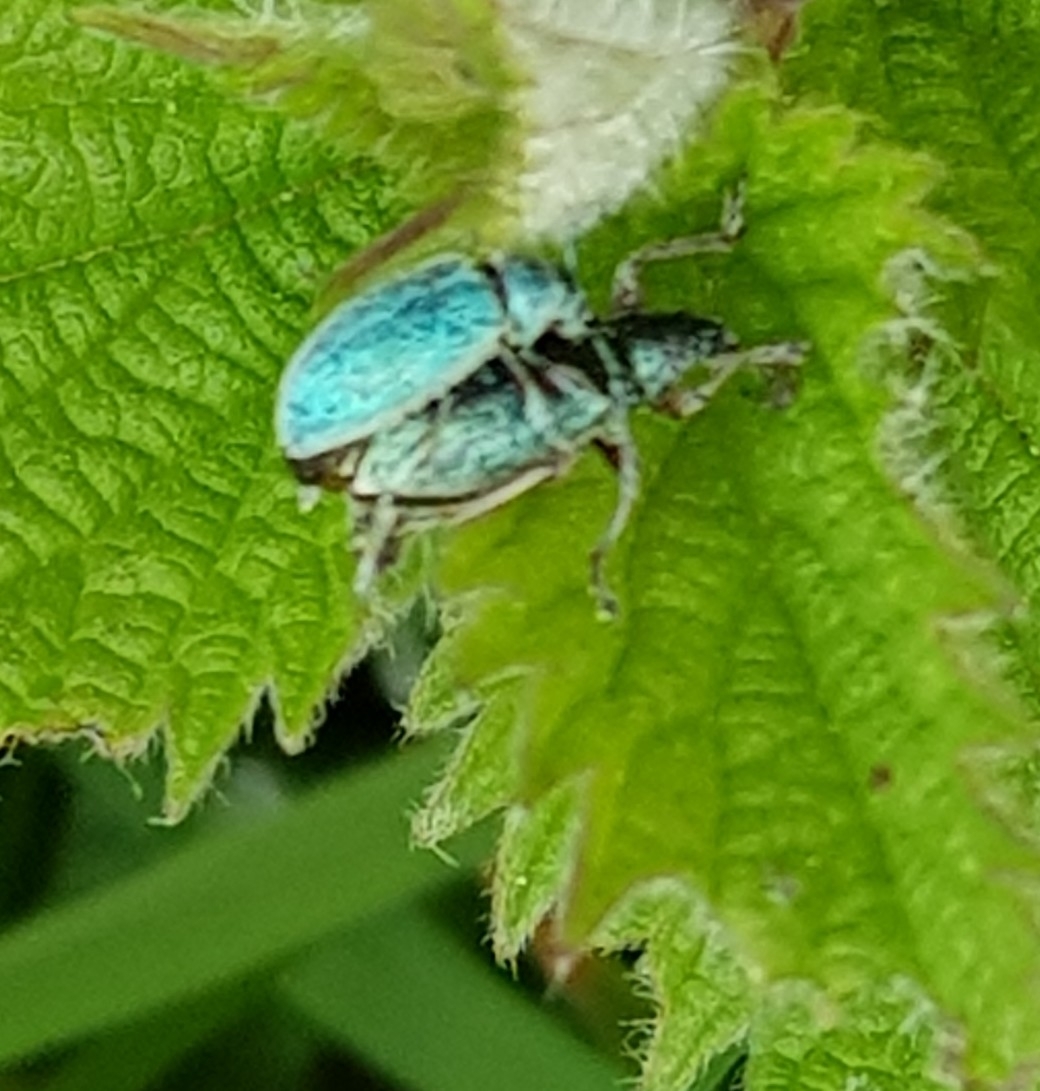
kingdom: Animalia
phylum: Arthropoda
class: Insecta
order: Coleoptera
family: Curculionidae
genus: Phyllobius
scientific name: Phyllobius pomaceus
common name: Green nettle weevil
